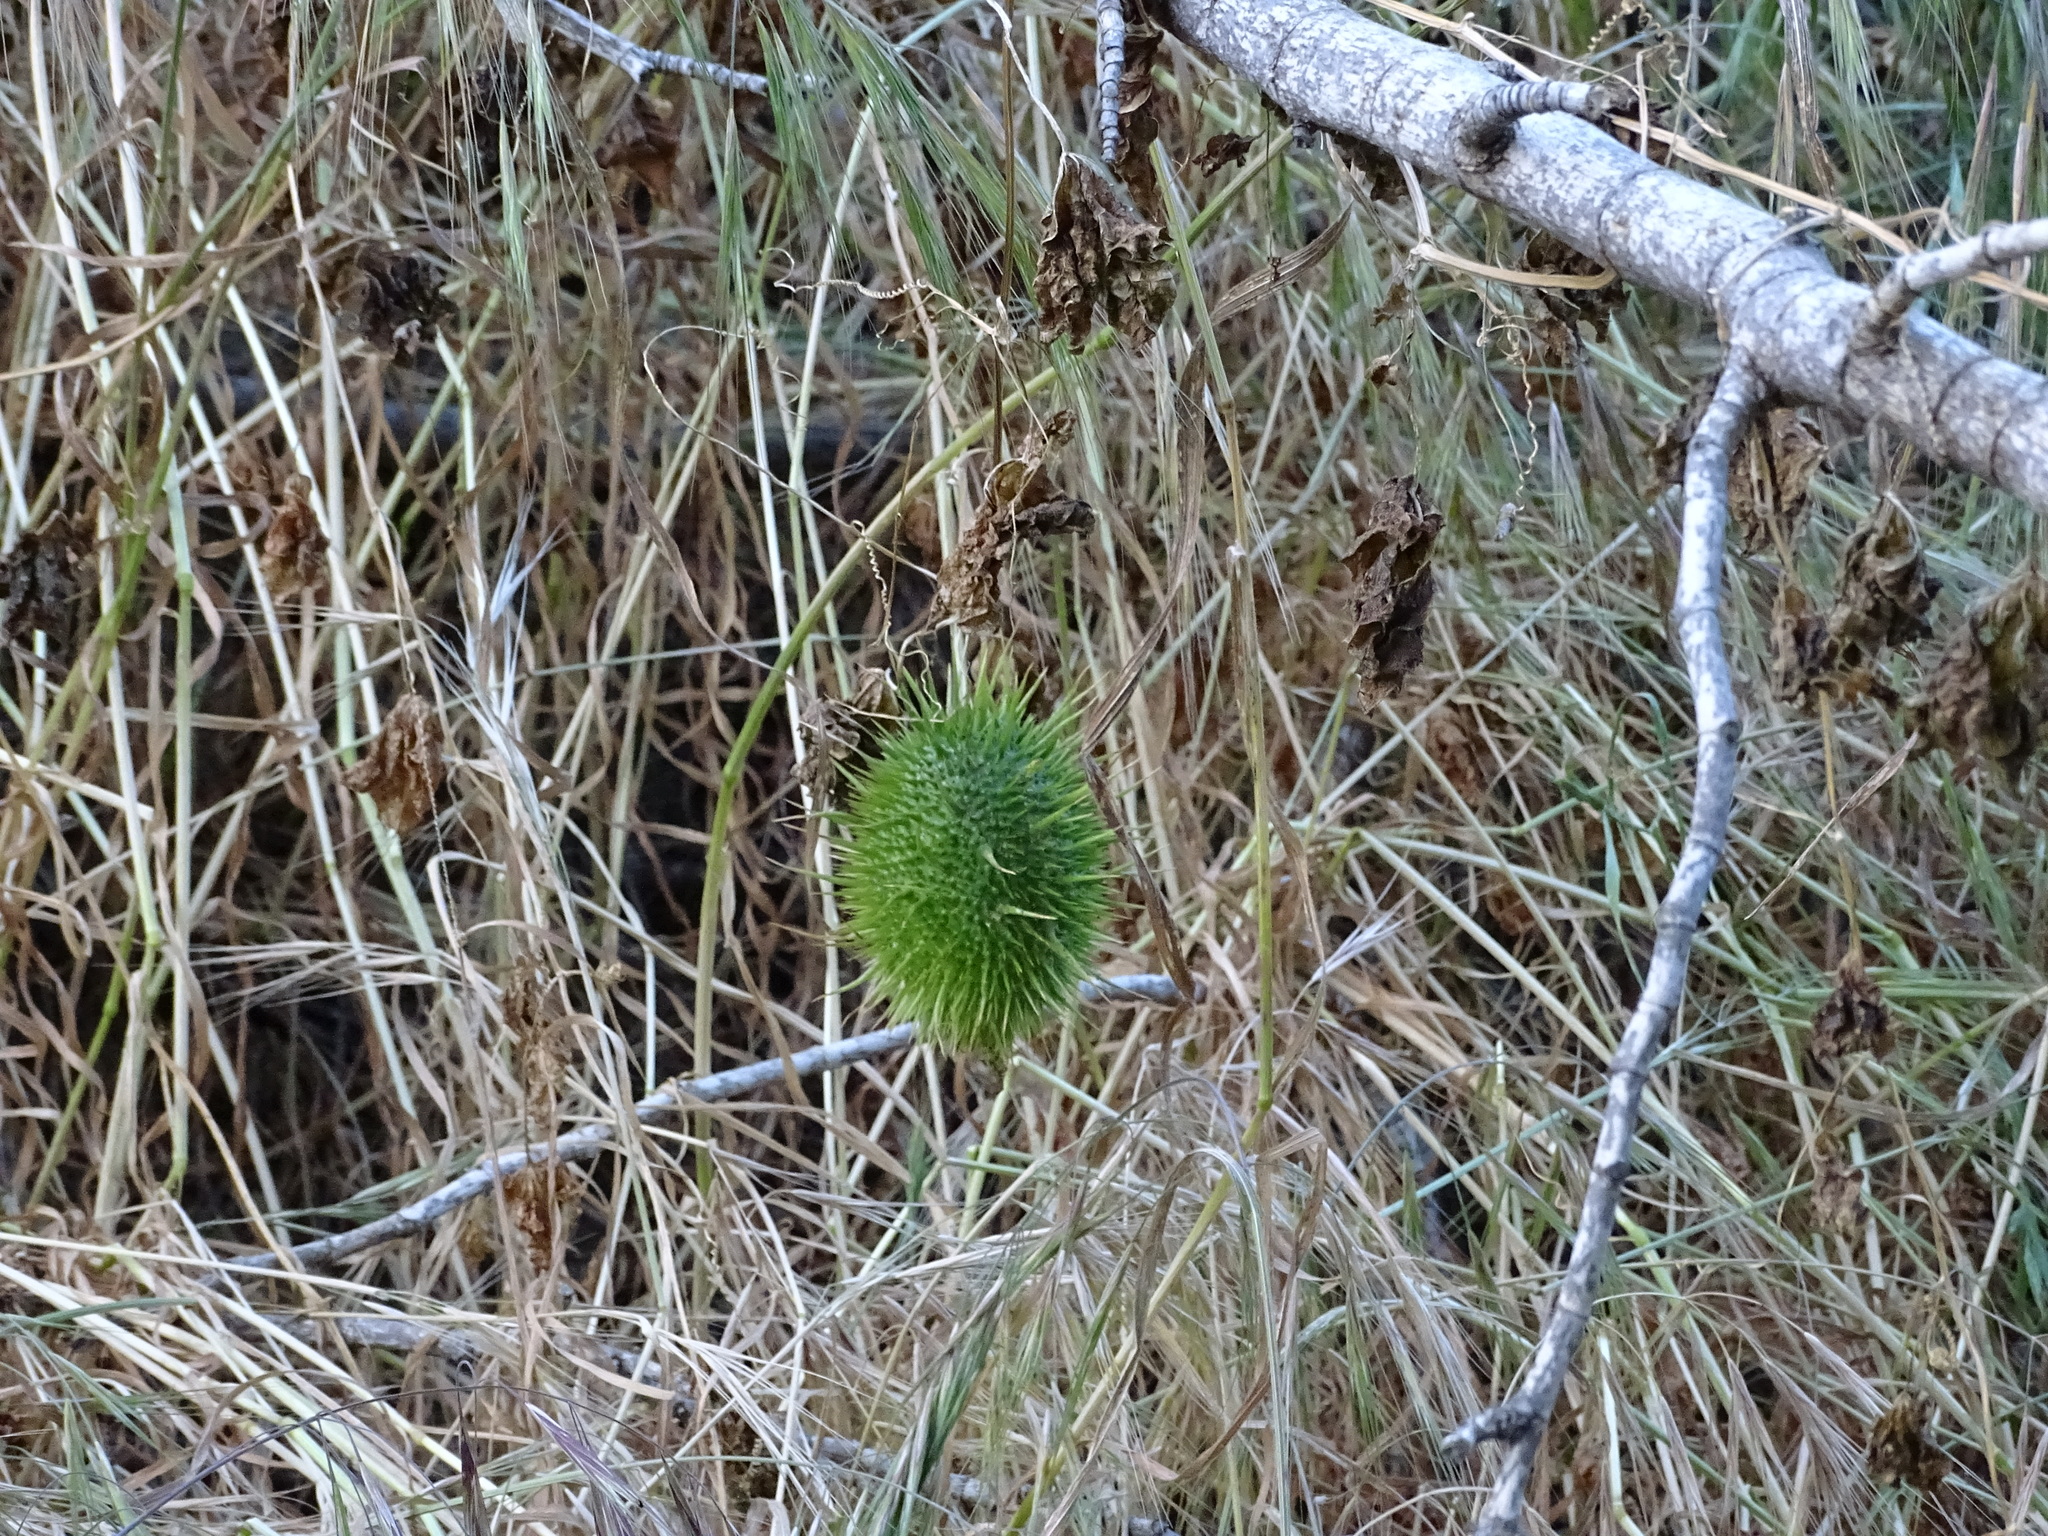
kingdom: Plantae
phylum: Tracheophyta
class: Magnoliopsida
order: Cucurbitales
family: Cucurbitaceae
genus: Marah
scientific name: Marah macrocarpa
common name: Cucamonga manroot
